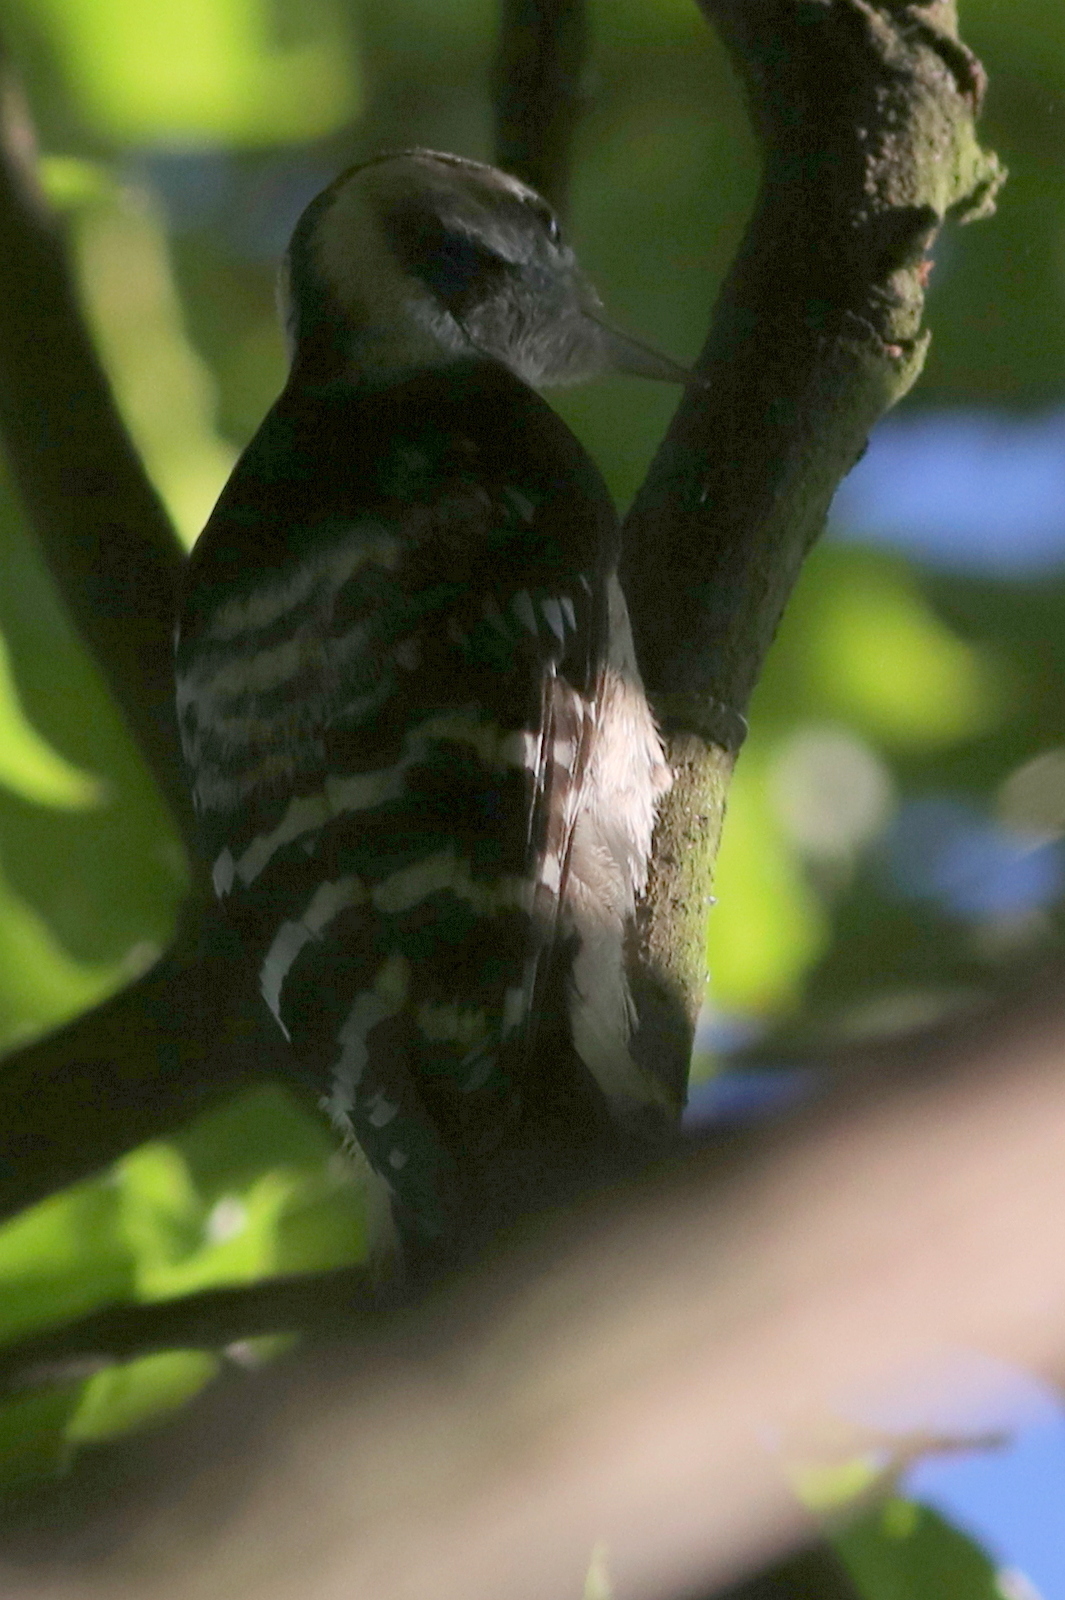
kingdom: Animalia
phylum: Chordata
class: Aves
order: Piciformes
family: Picidae
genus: Dryobates
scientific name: Dryobates minor
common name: Lesser spotted woodpecker
